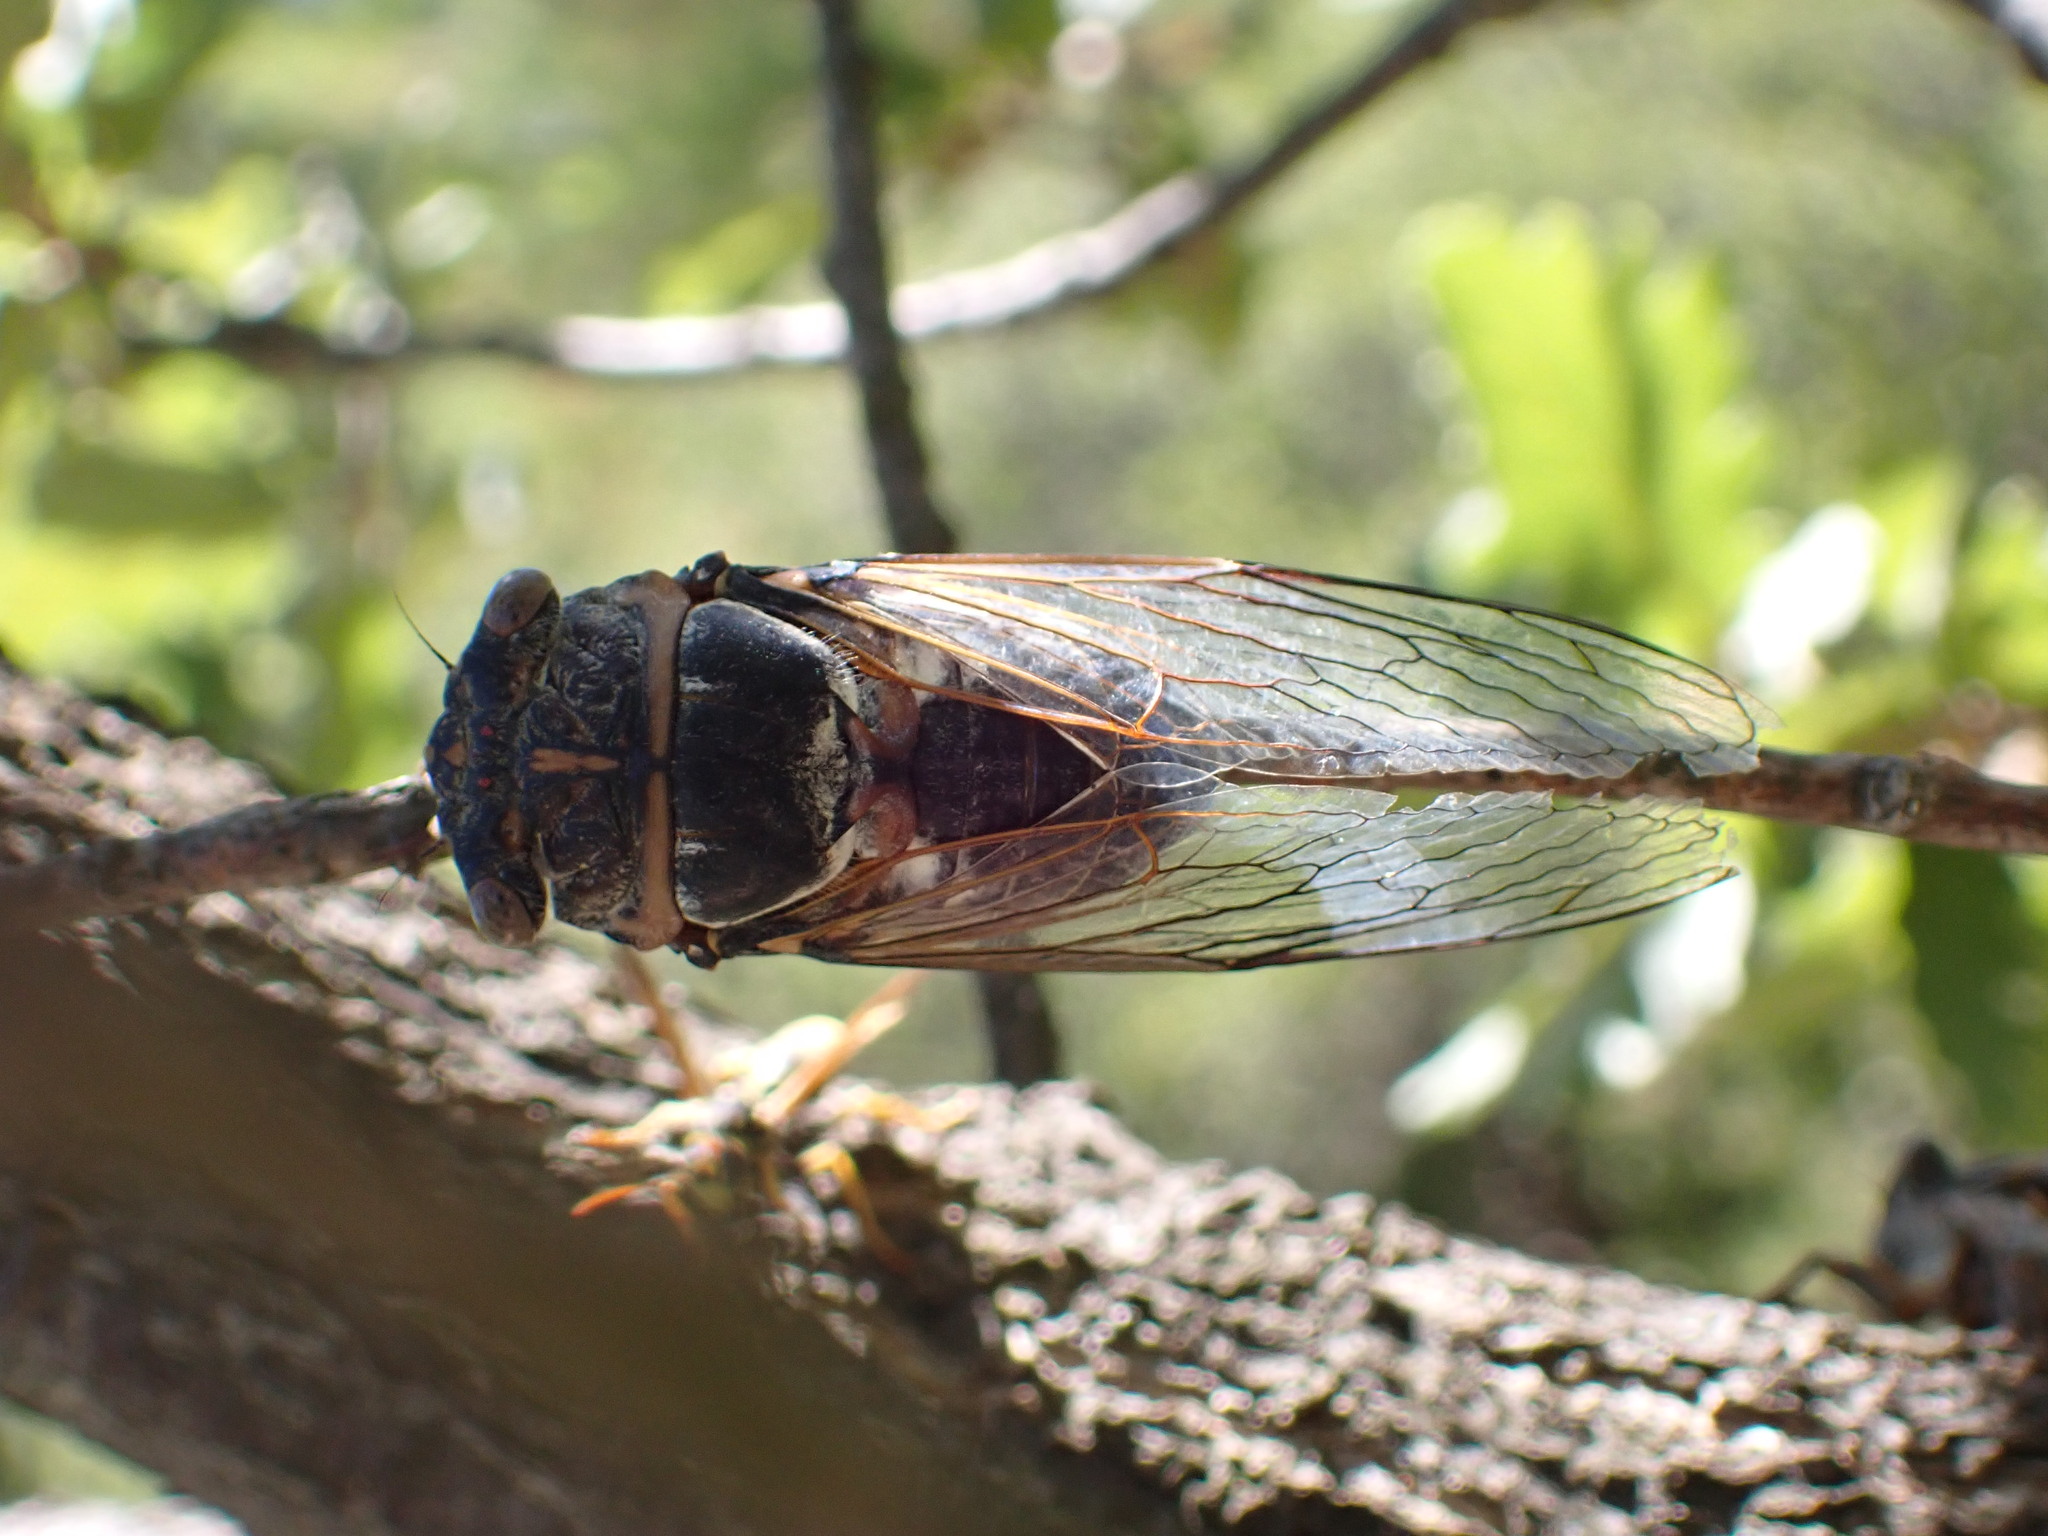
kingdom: Animalia
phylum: Arthropoda
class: Insecta
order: Hemiptera
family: Cicadidae
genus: Lyristes
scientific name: Lyristes plebejus
